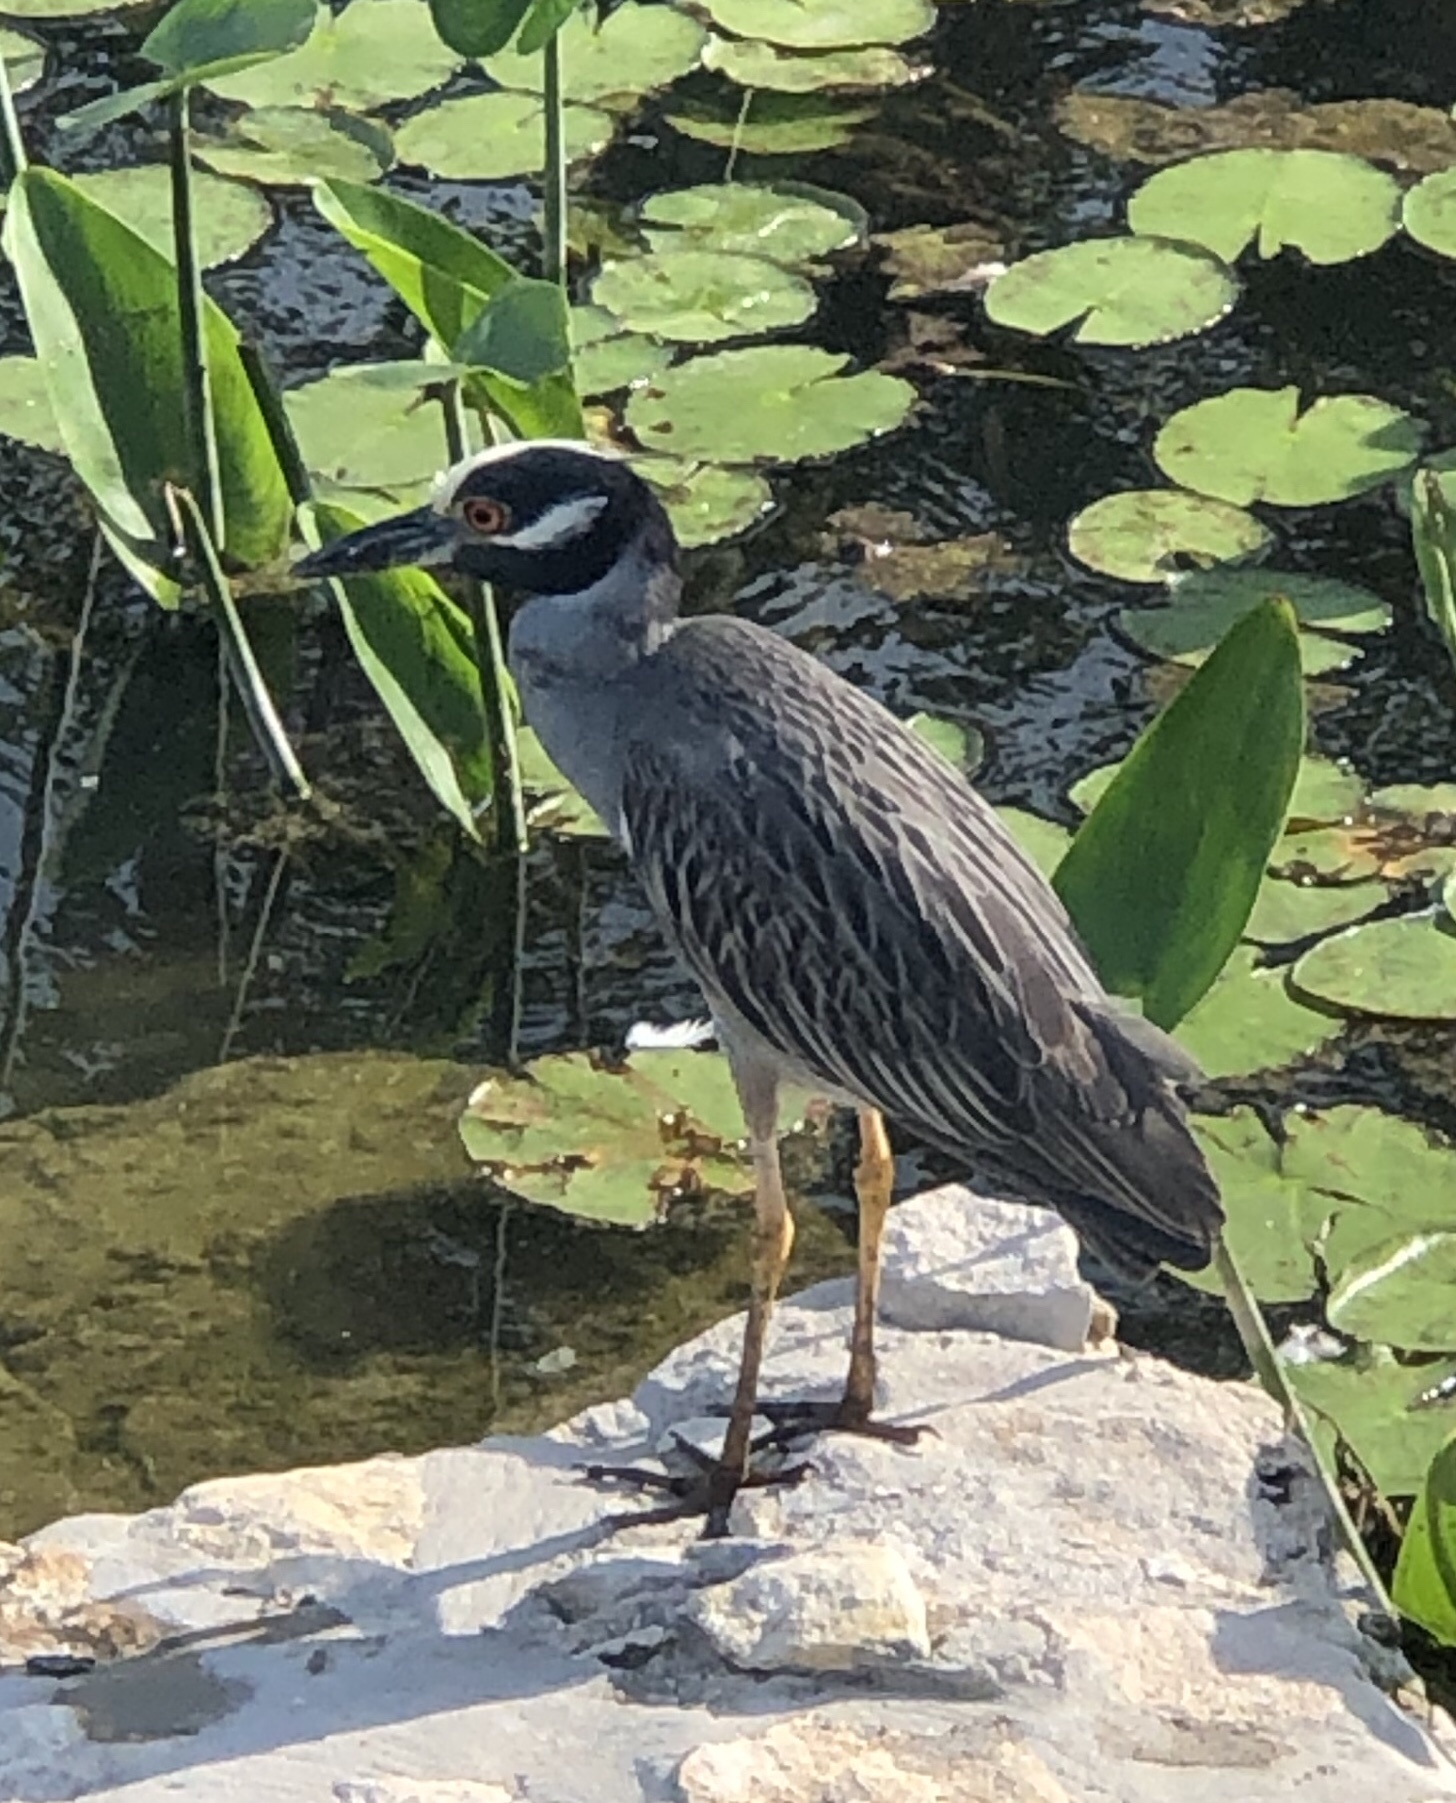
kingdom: Animalia
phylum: Chordata
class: Aves
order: Pelecaniformes
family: Ardeidae
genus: Nyctanassa
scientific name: Nyctanassa violacea
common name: Yellow-crowned night heron
